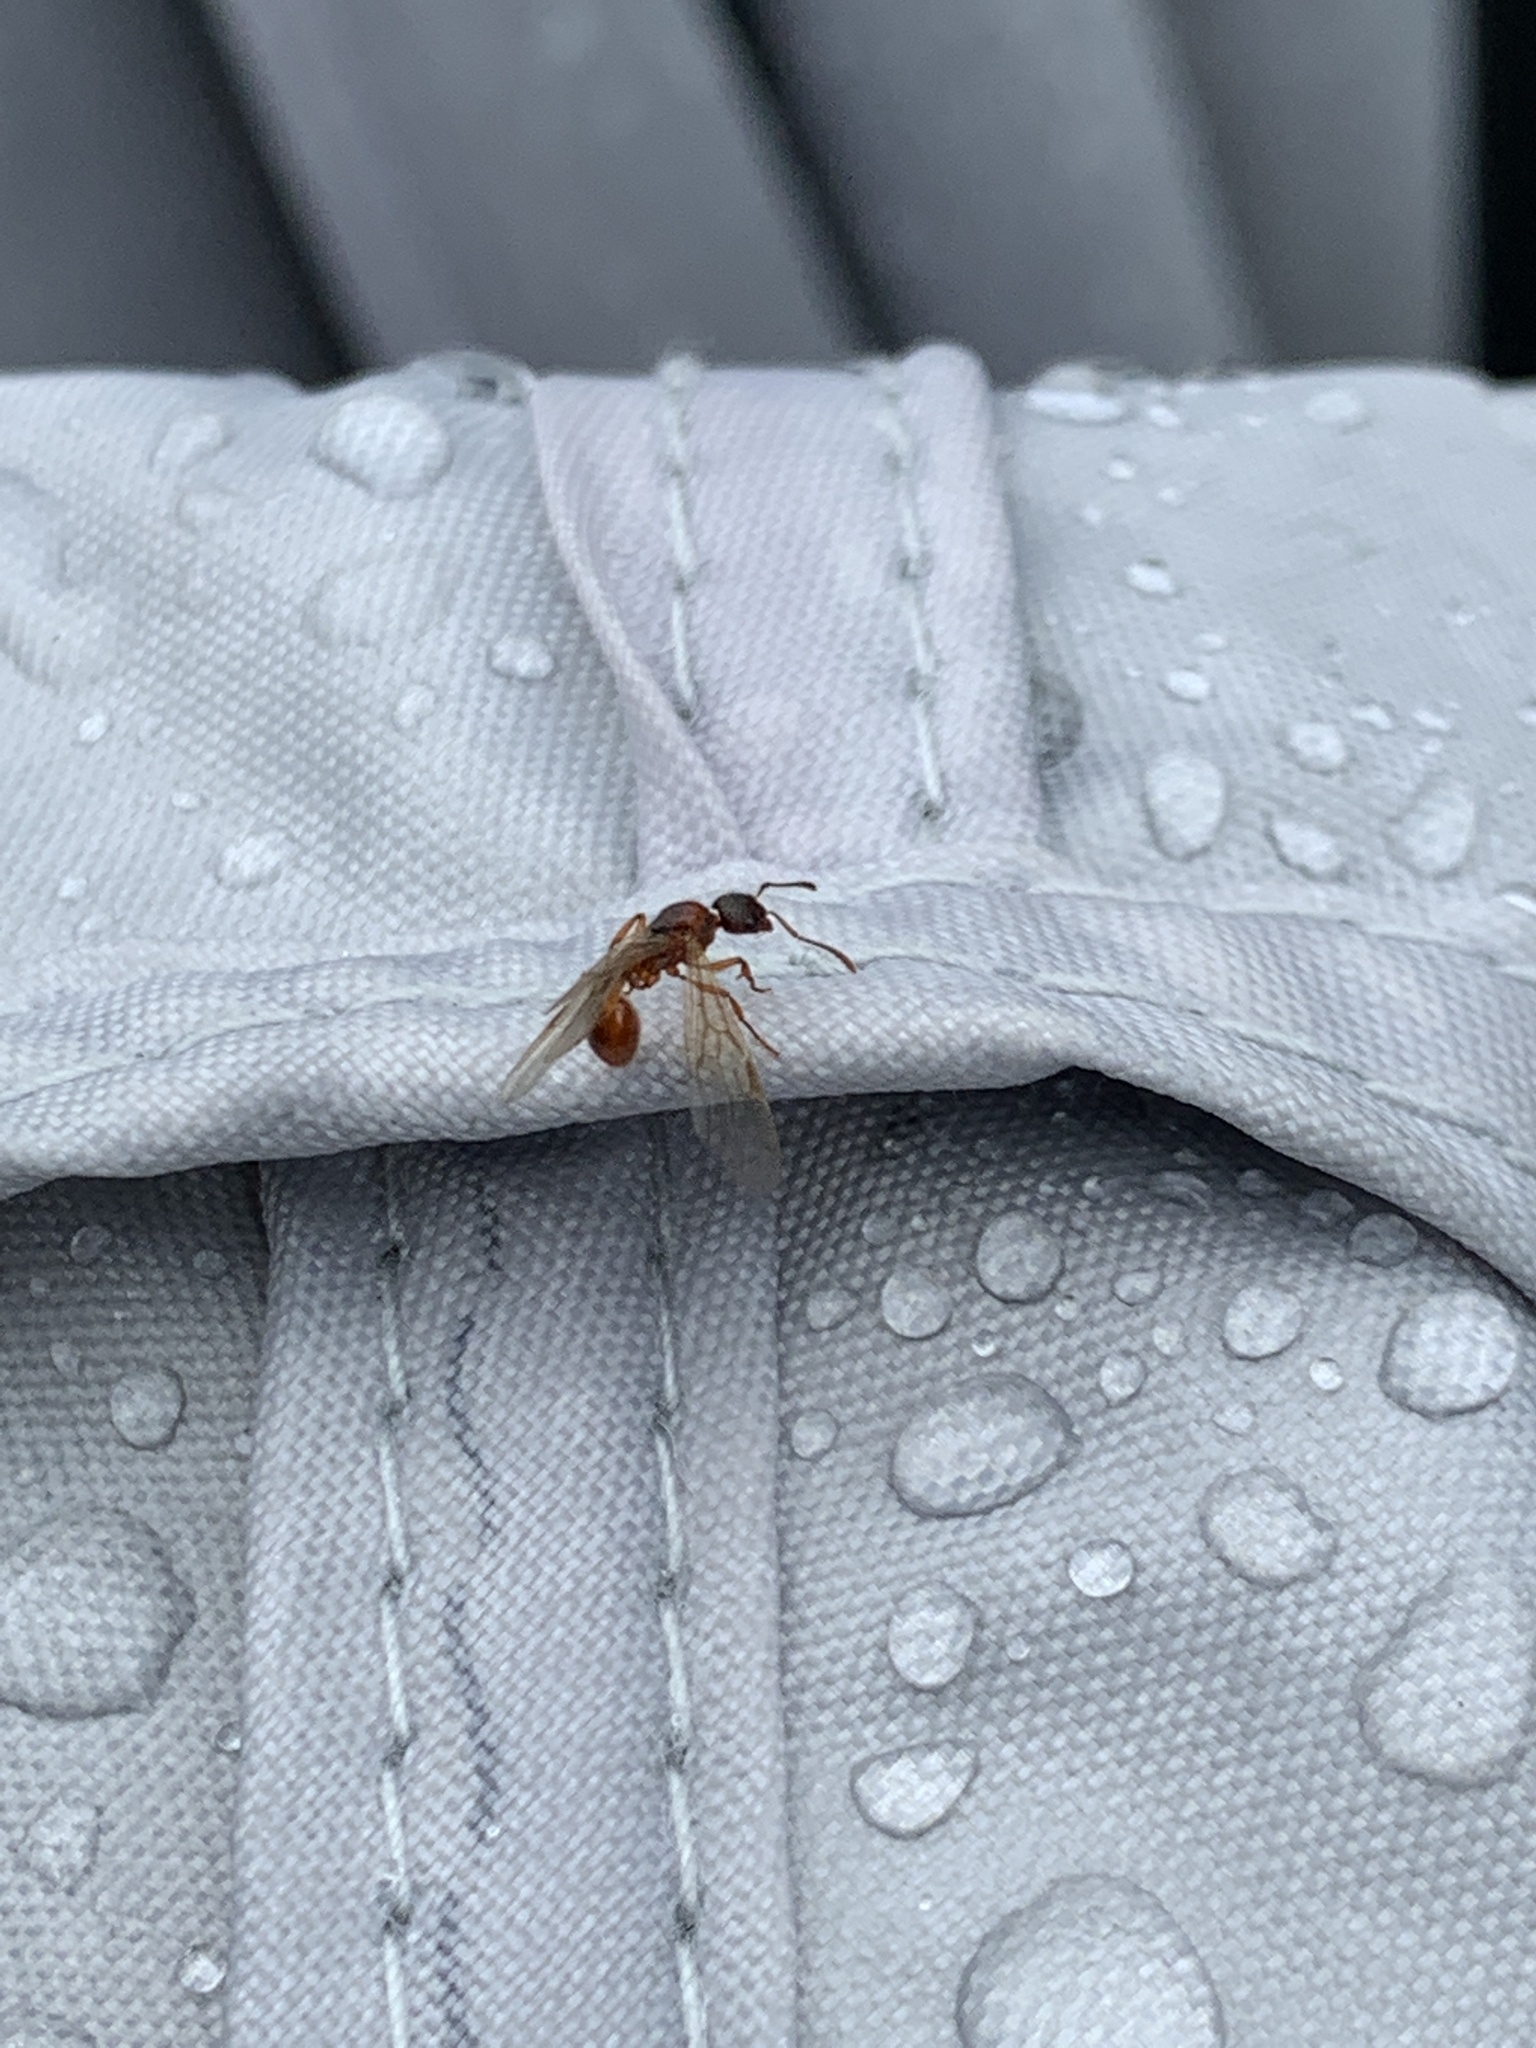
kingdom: Animalia
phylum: Arthropoda
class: Insecta
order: Hymenoptera
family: Formicidae
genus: Myrmica
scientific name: Myrmica rubra
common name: European fire ant
